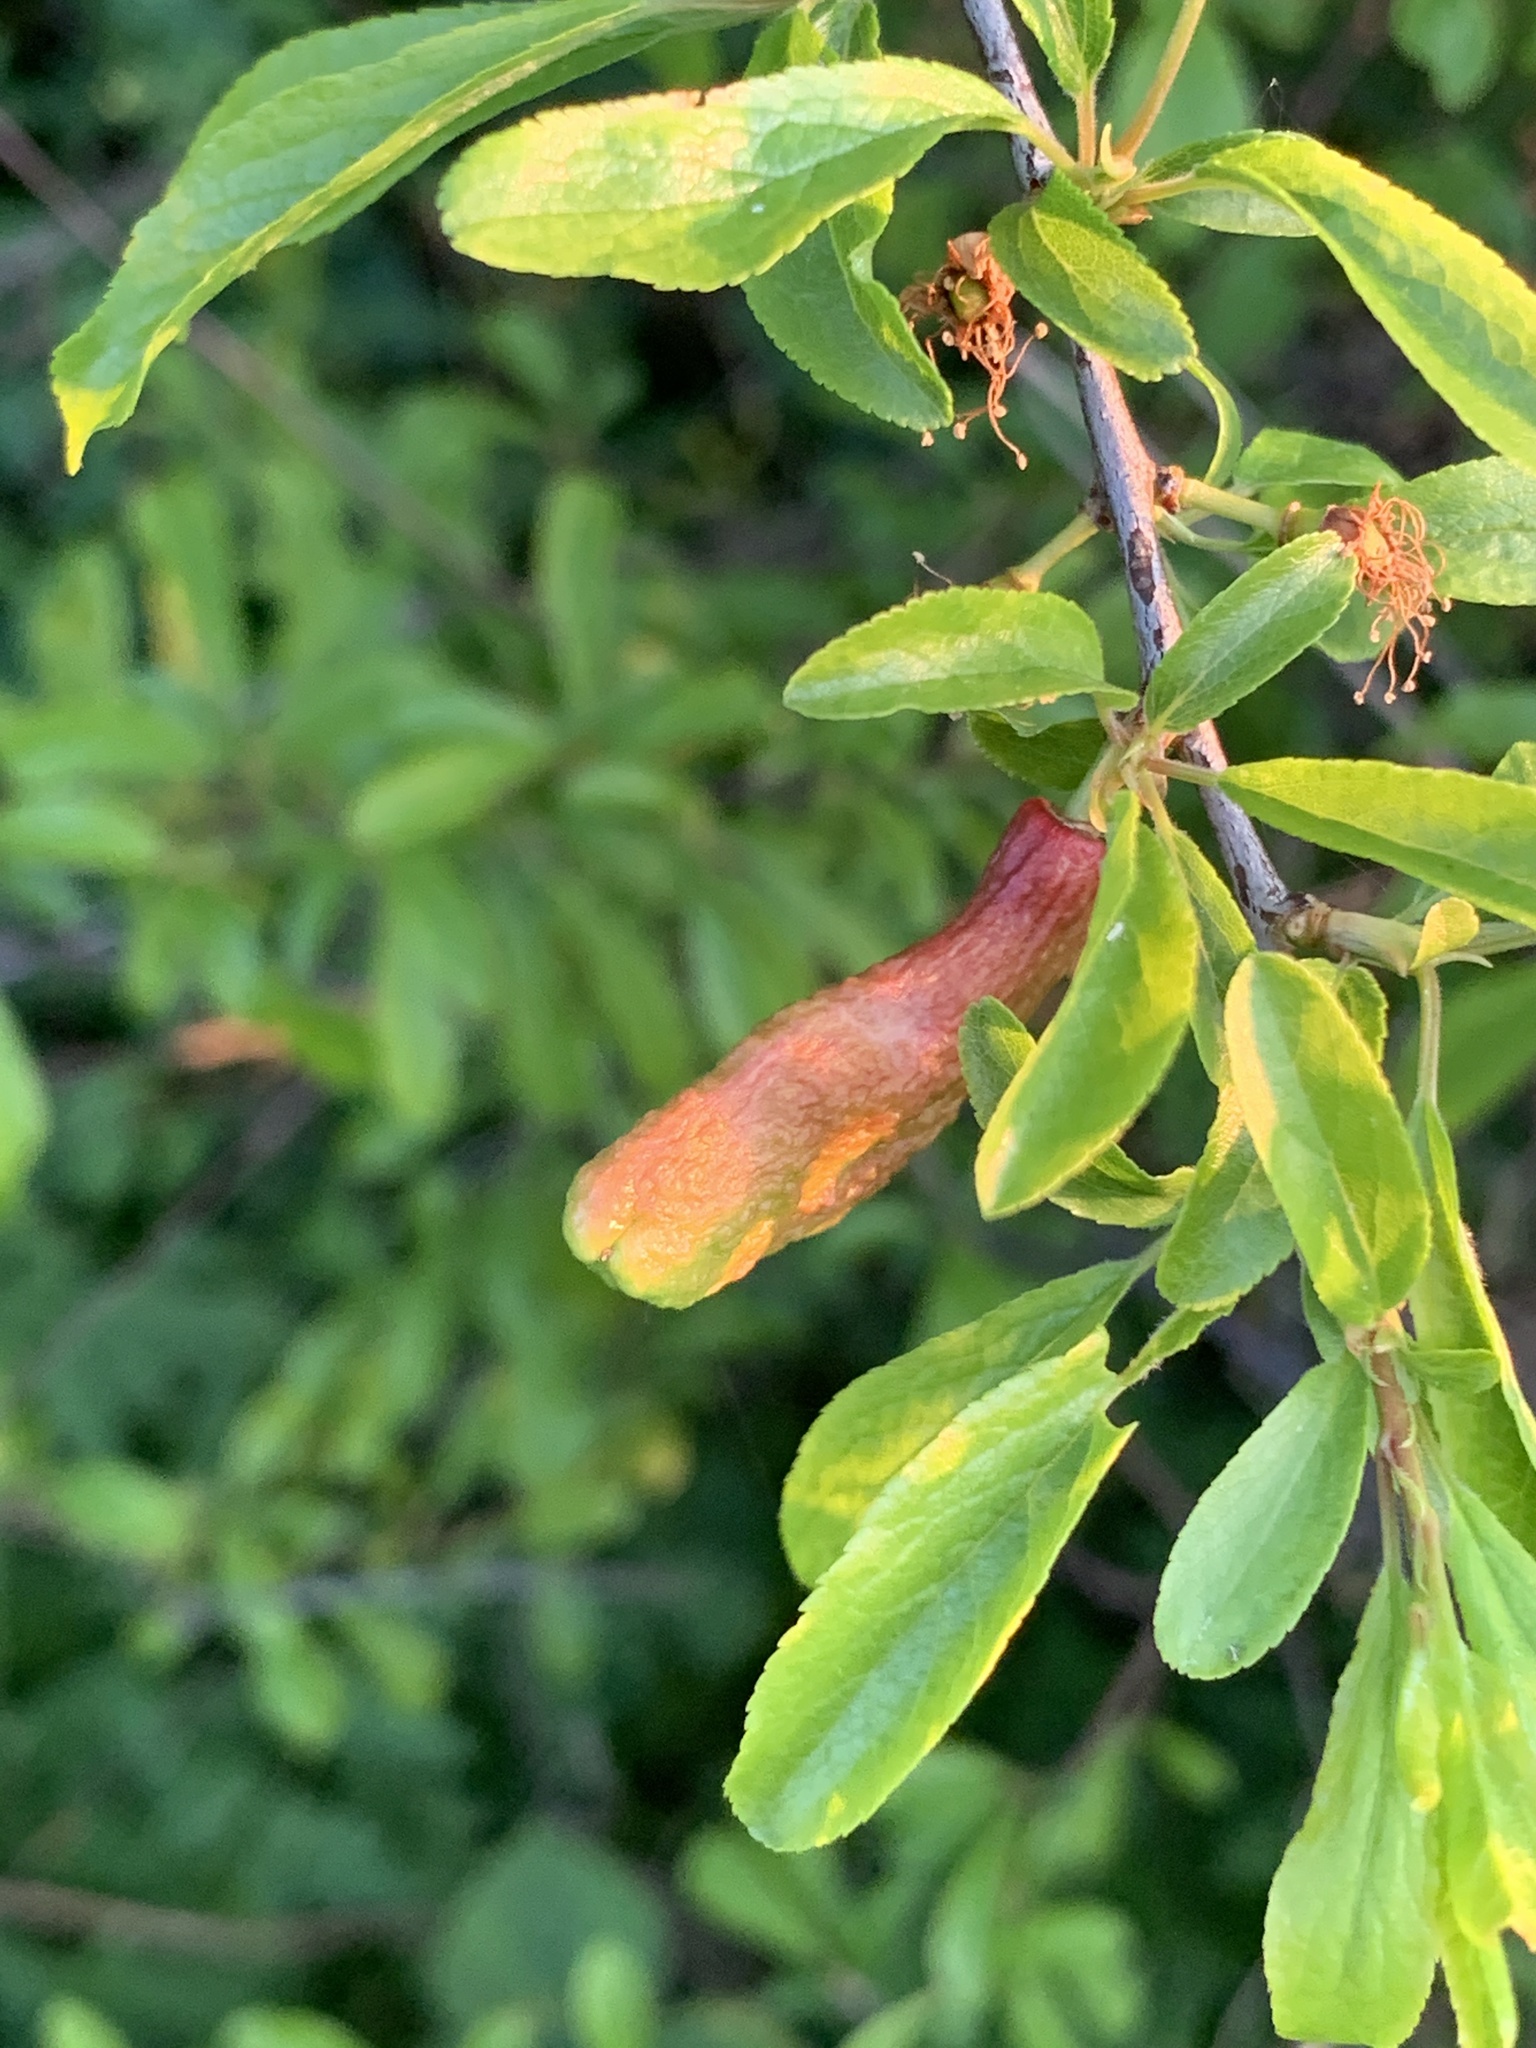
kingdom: Fungi
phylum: Ascomycota
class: Taphrinomycetes
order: Taphrinales
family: Taphrinaceae
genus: Taphrina
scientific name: Taphrina pruni
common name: Pocket plum
